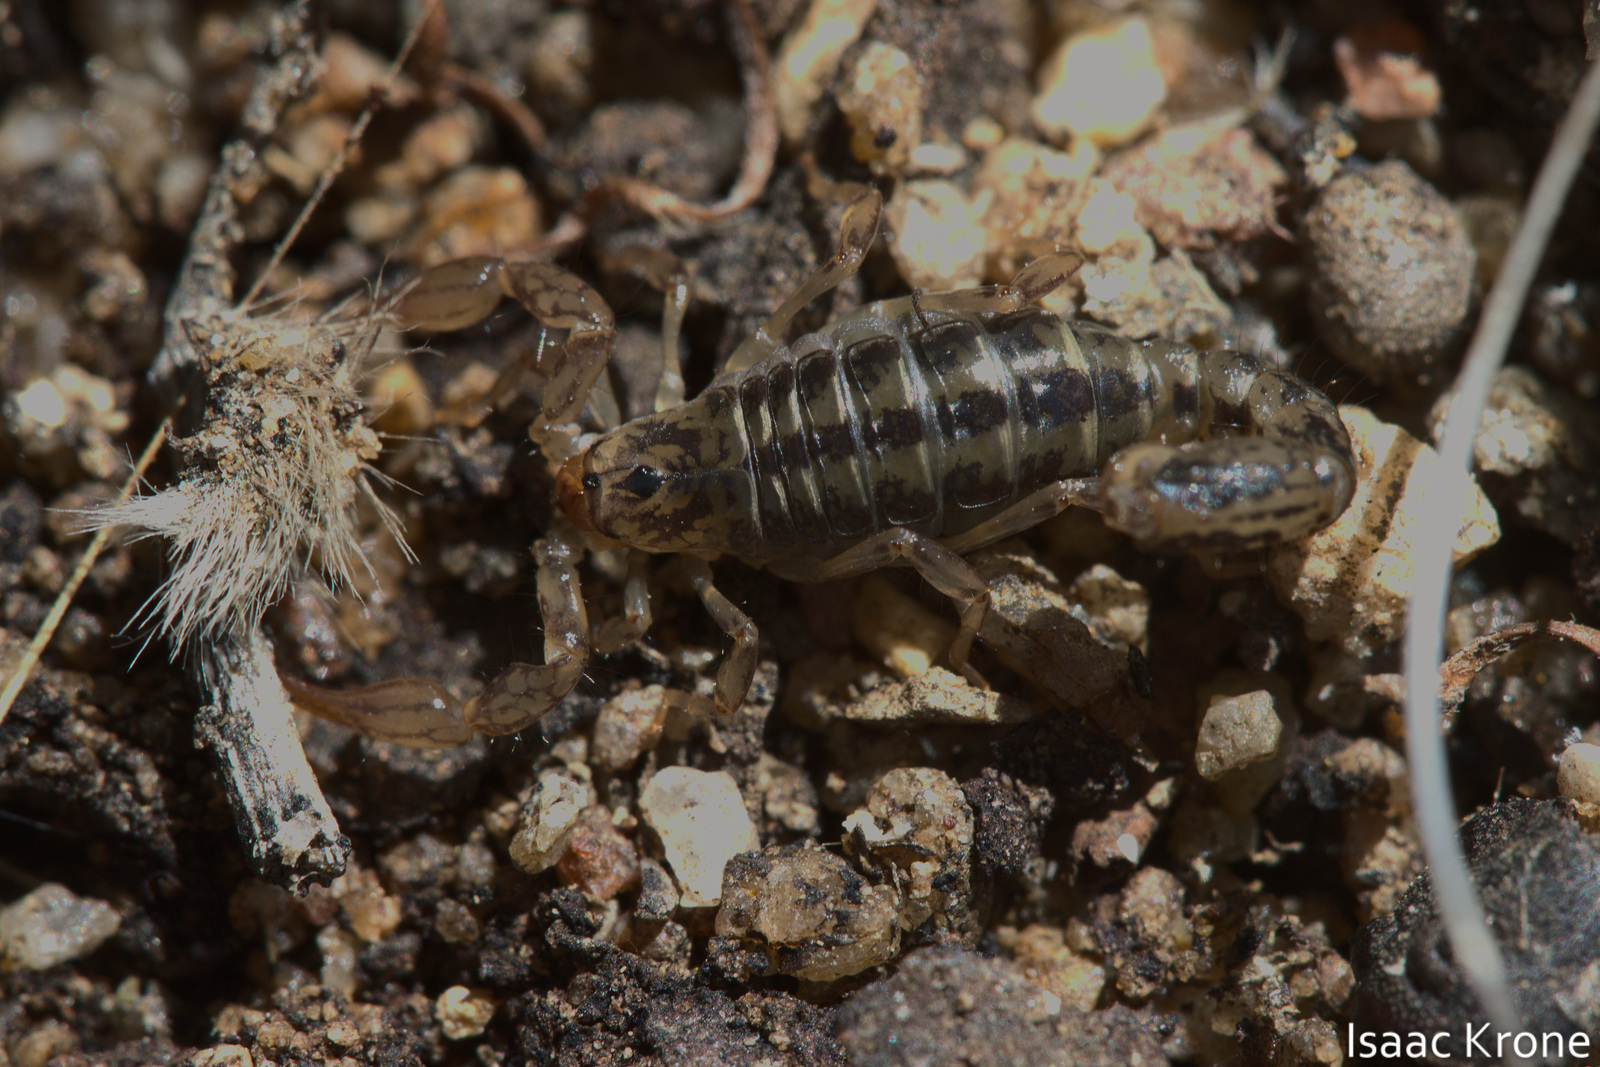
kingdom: Animalia
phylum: Arthropoda
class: Arachnida
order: Scorpiones
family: Superstitioniidae
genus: Superstitionia
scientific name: Superstitionia donensis
